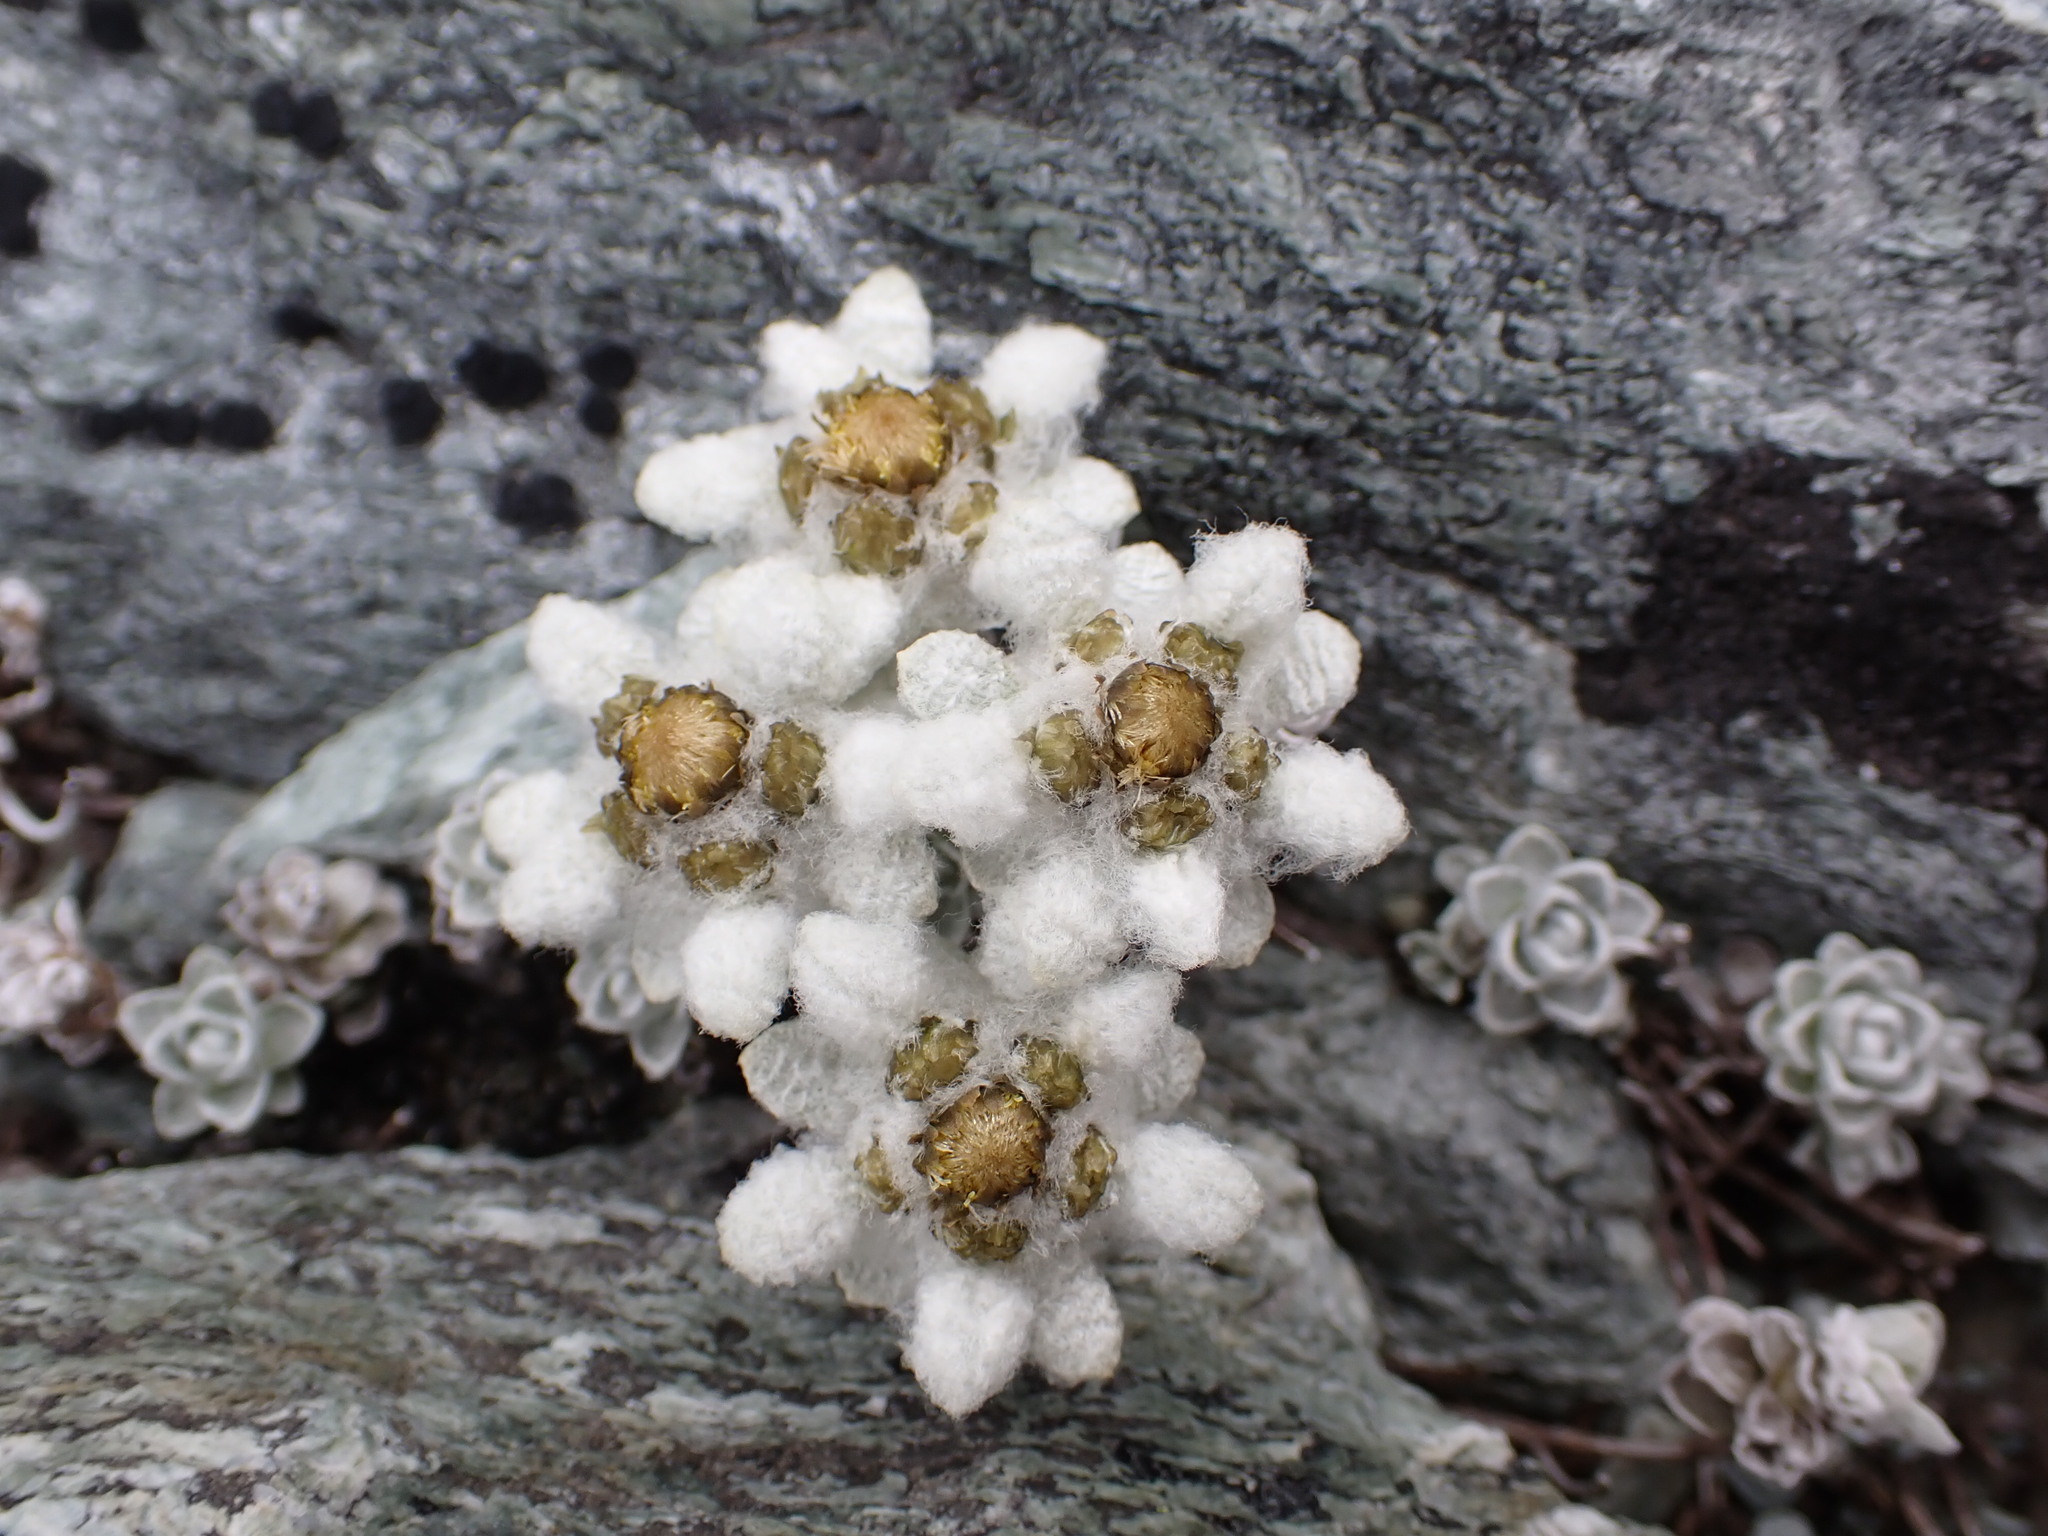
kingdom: Plantae
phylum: Tracheophyta
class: Magnoliopsida
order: Asterales
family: Asteraceae
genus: Leucogenes
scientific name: Leucogenes grandiceps
